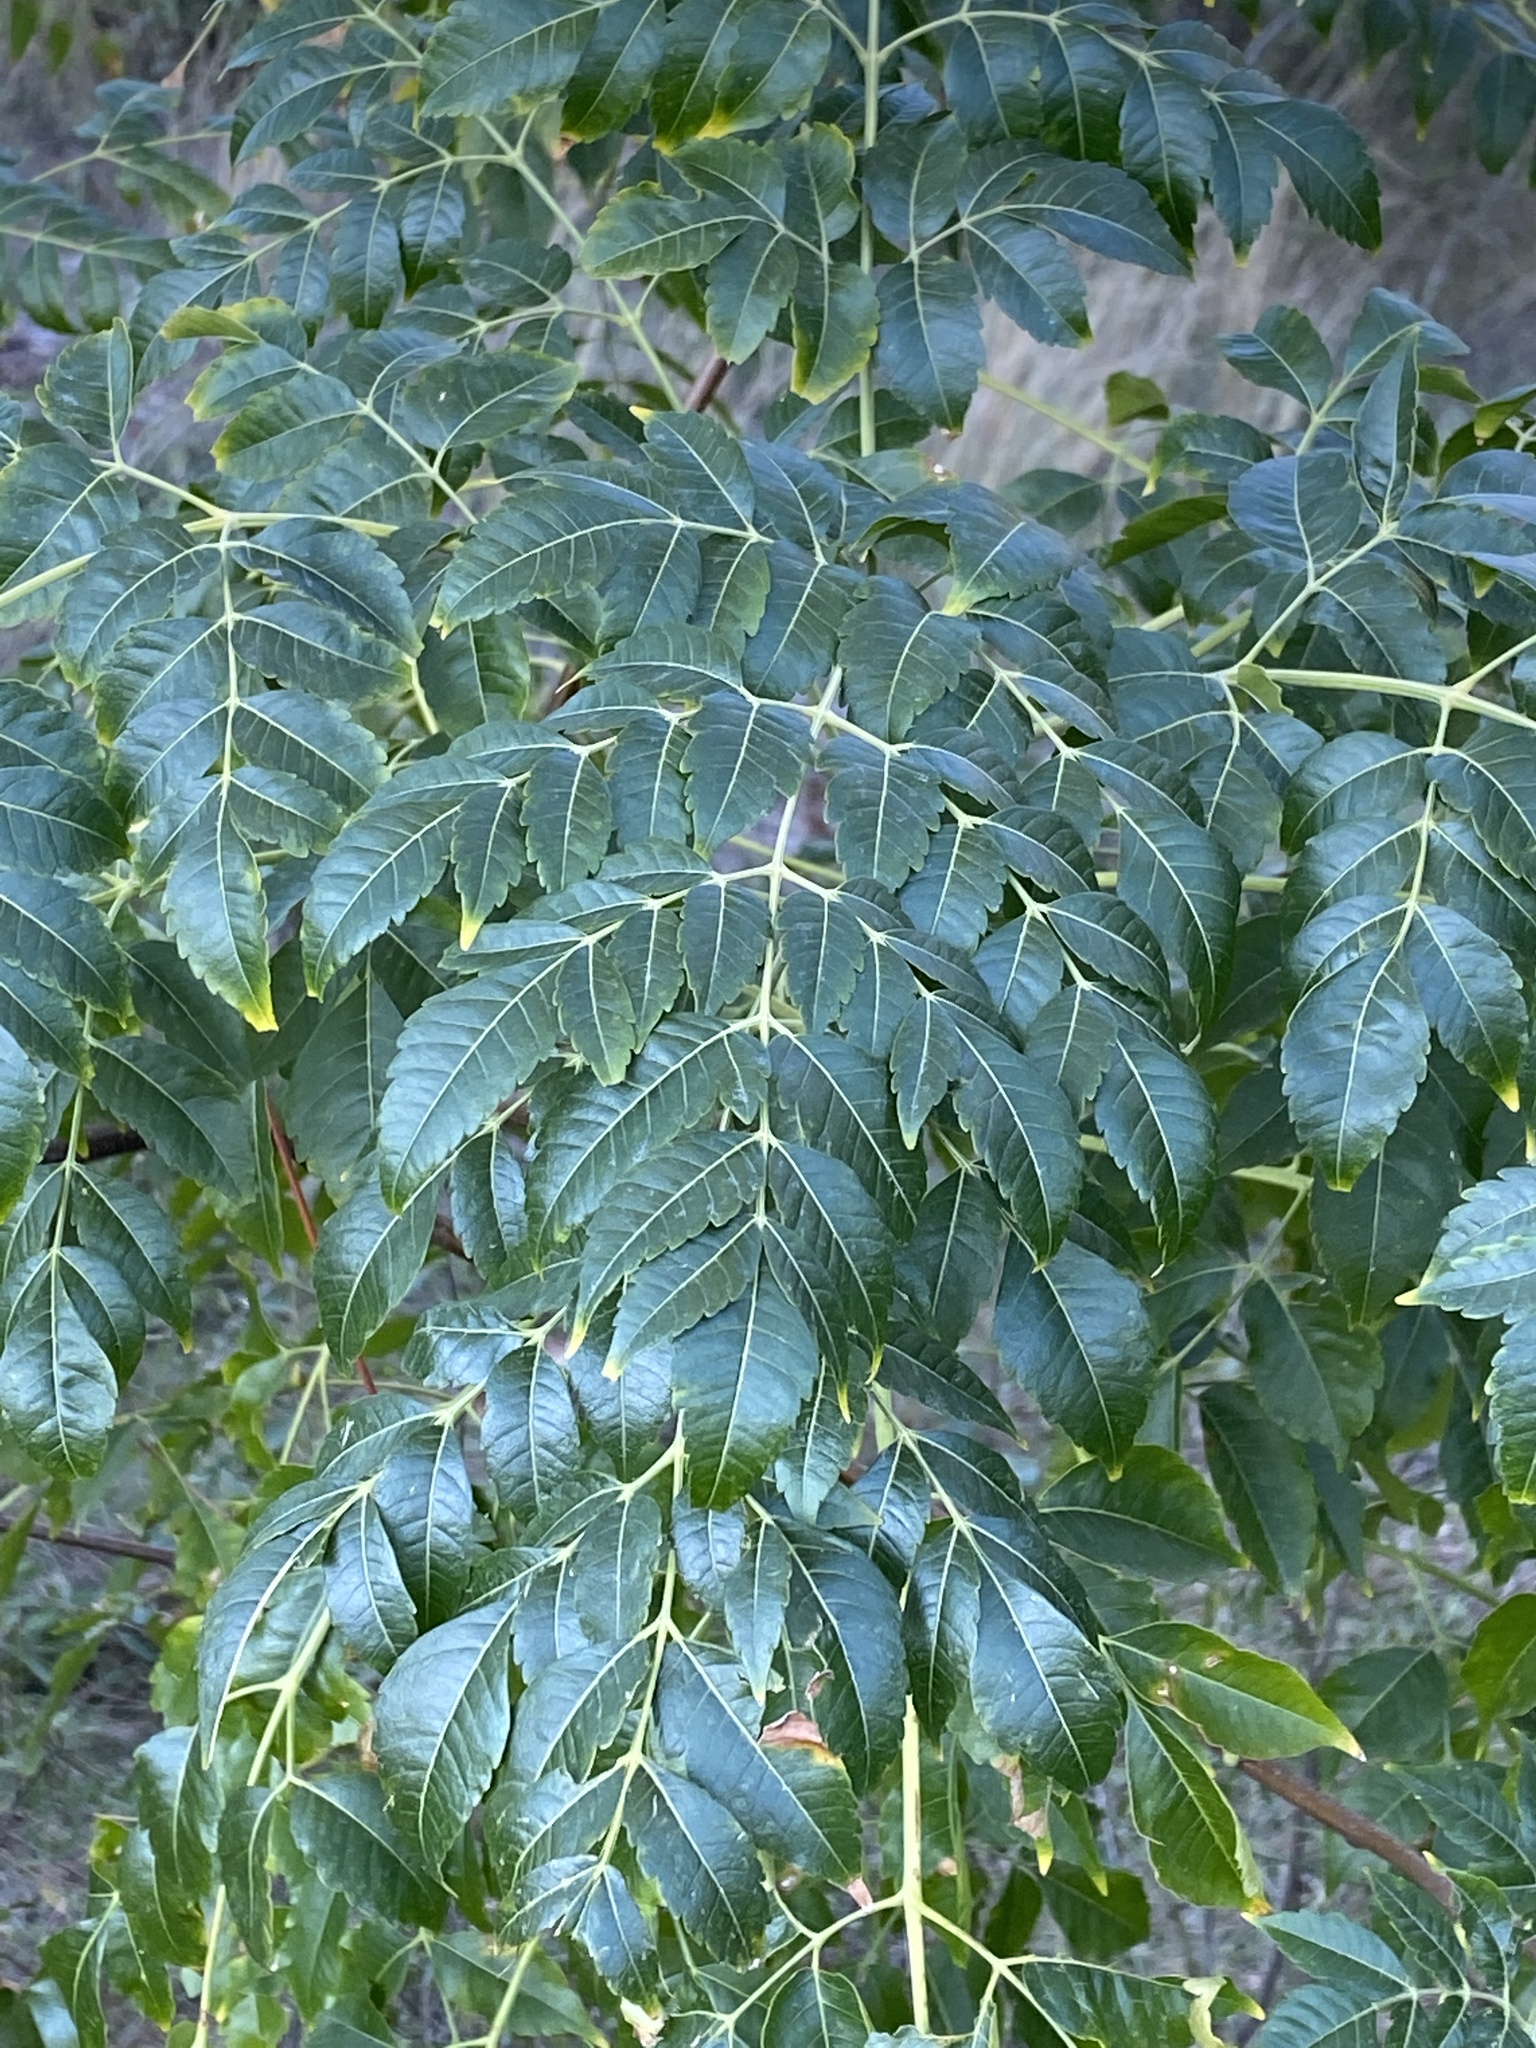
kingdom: Plantae
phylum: Tracheophyta
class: Magnoliopsida
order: Sapindales
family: Meliaceae
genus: Melia
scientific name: Melia azedarach
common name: Chinaberrytree
